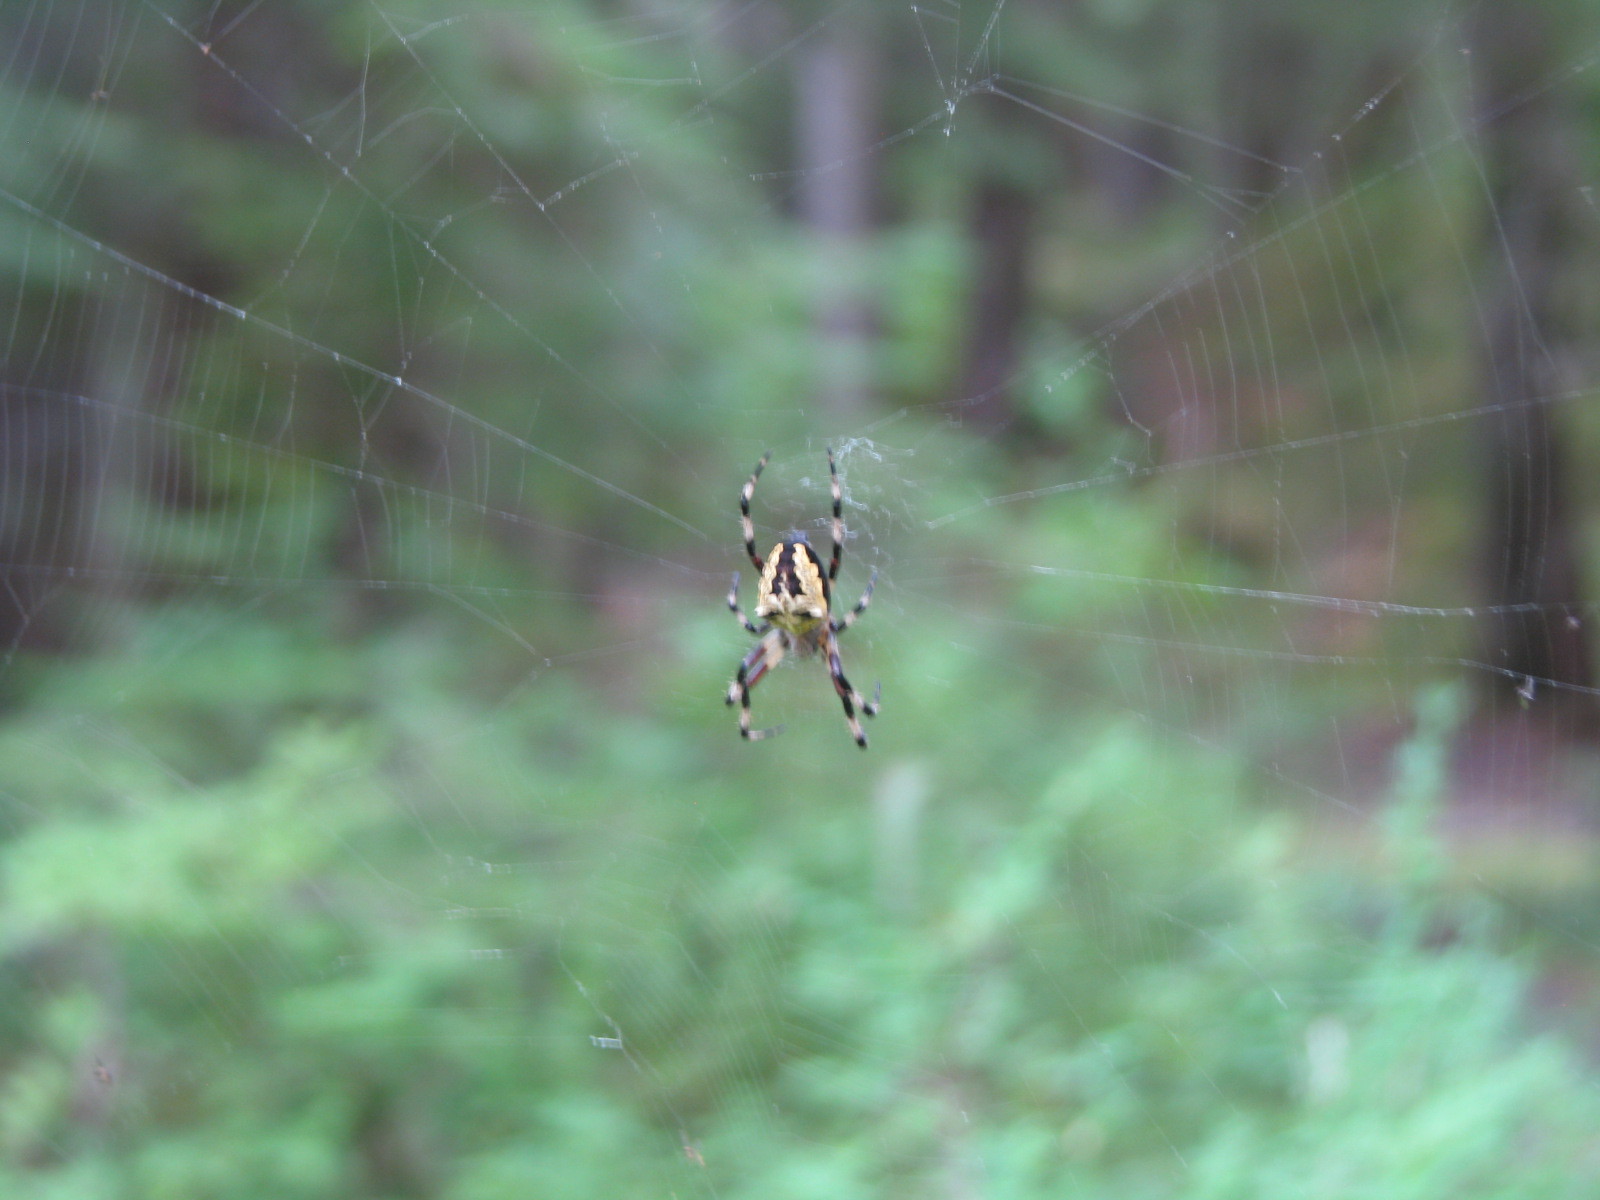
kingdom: Animalia
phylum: Arthropoda
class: Arachnida
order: Araneae
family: Araneidae
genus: Araneus
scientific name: Araneus nordmanni
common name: Nordmann's orbweaver
